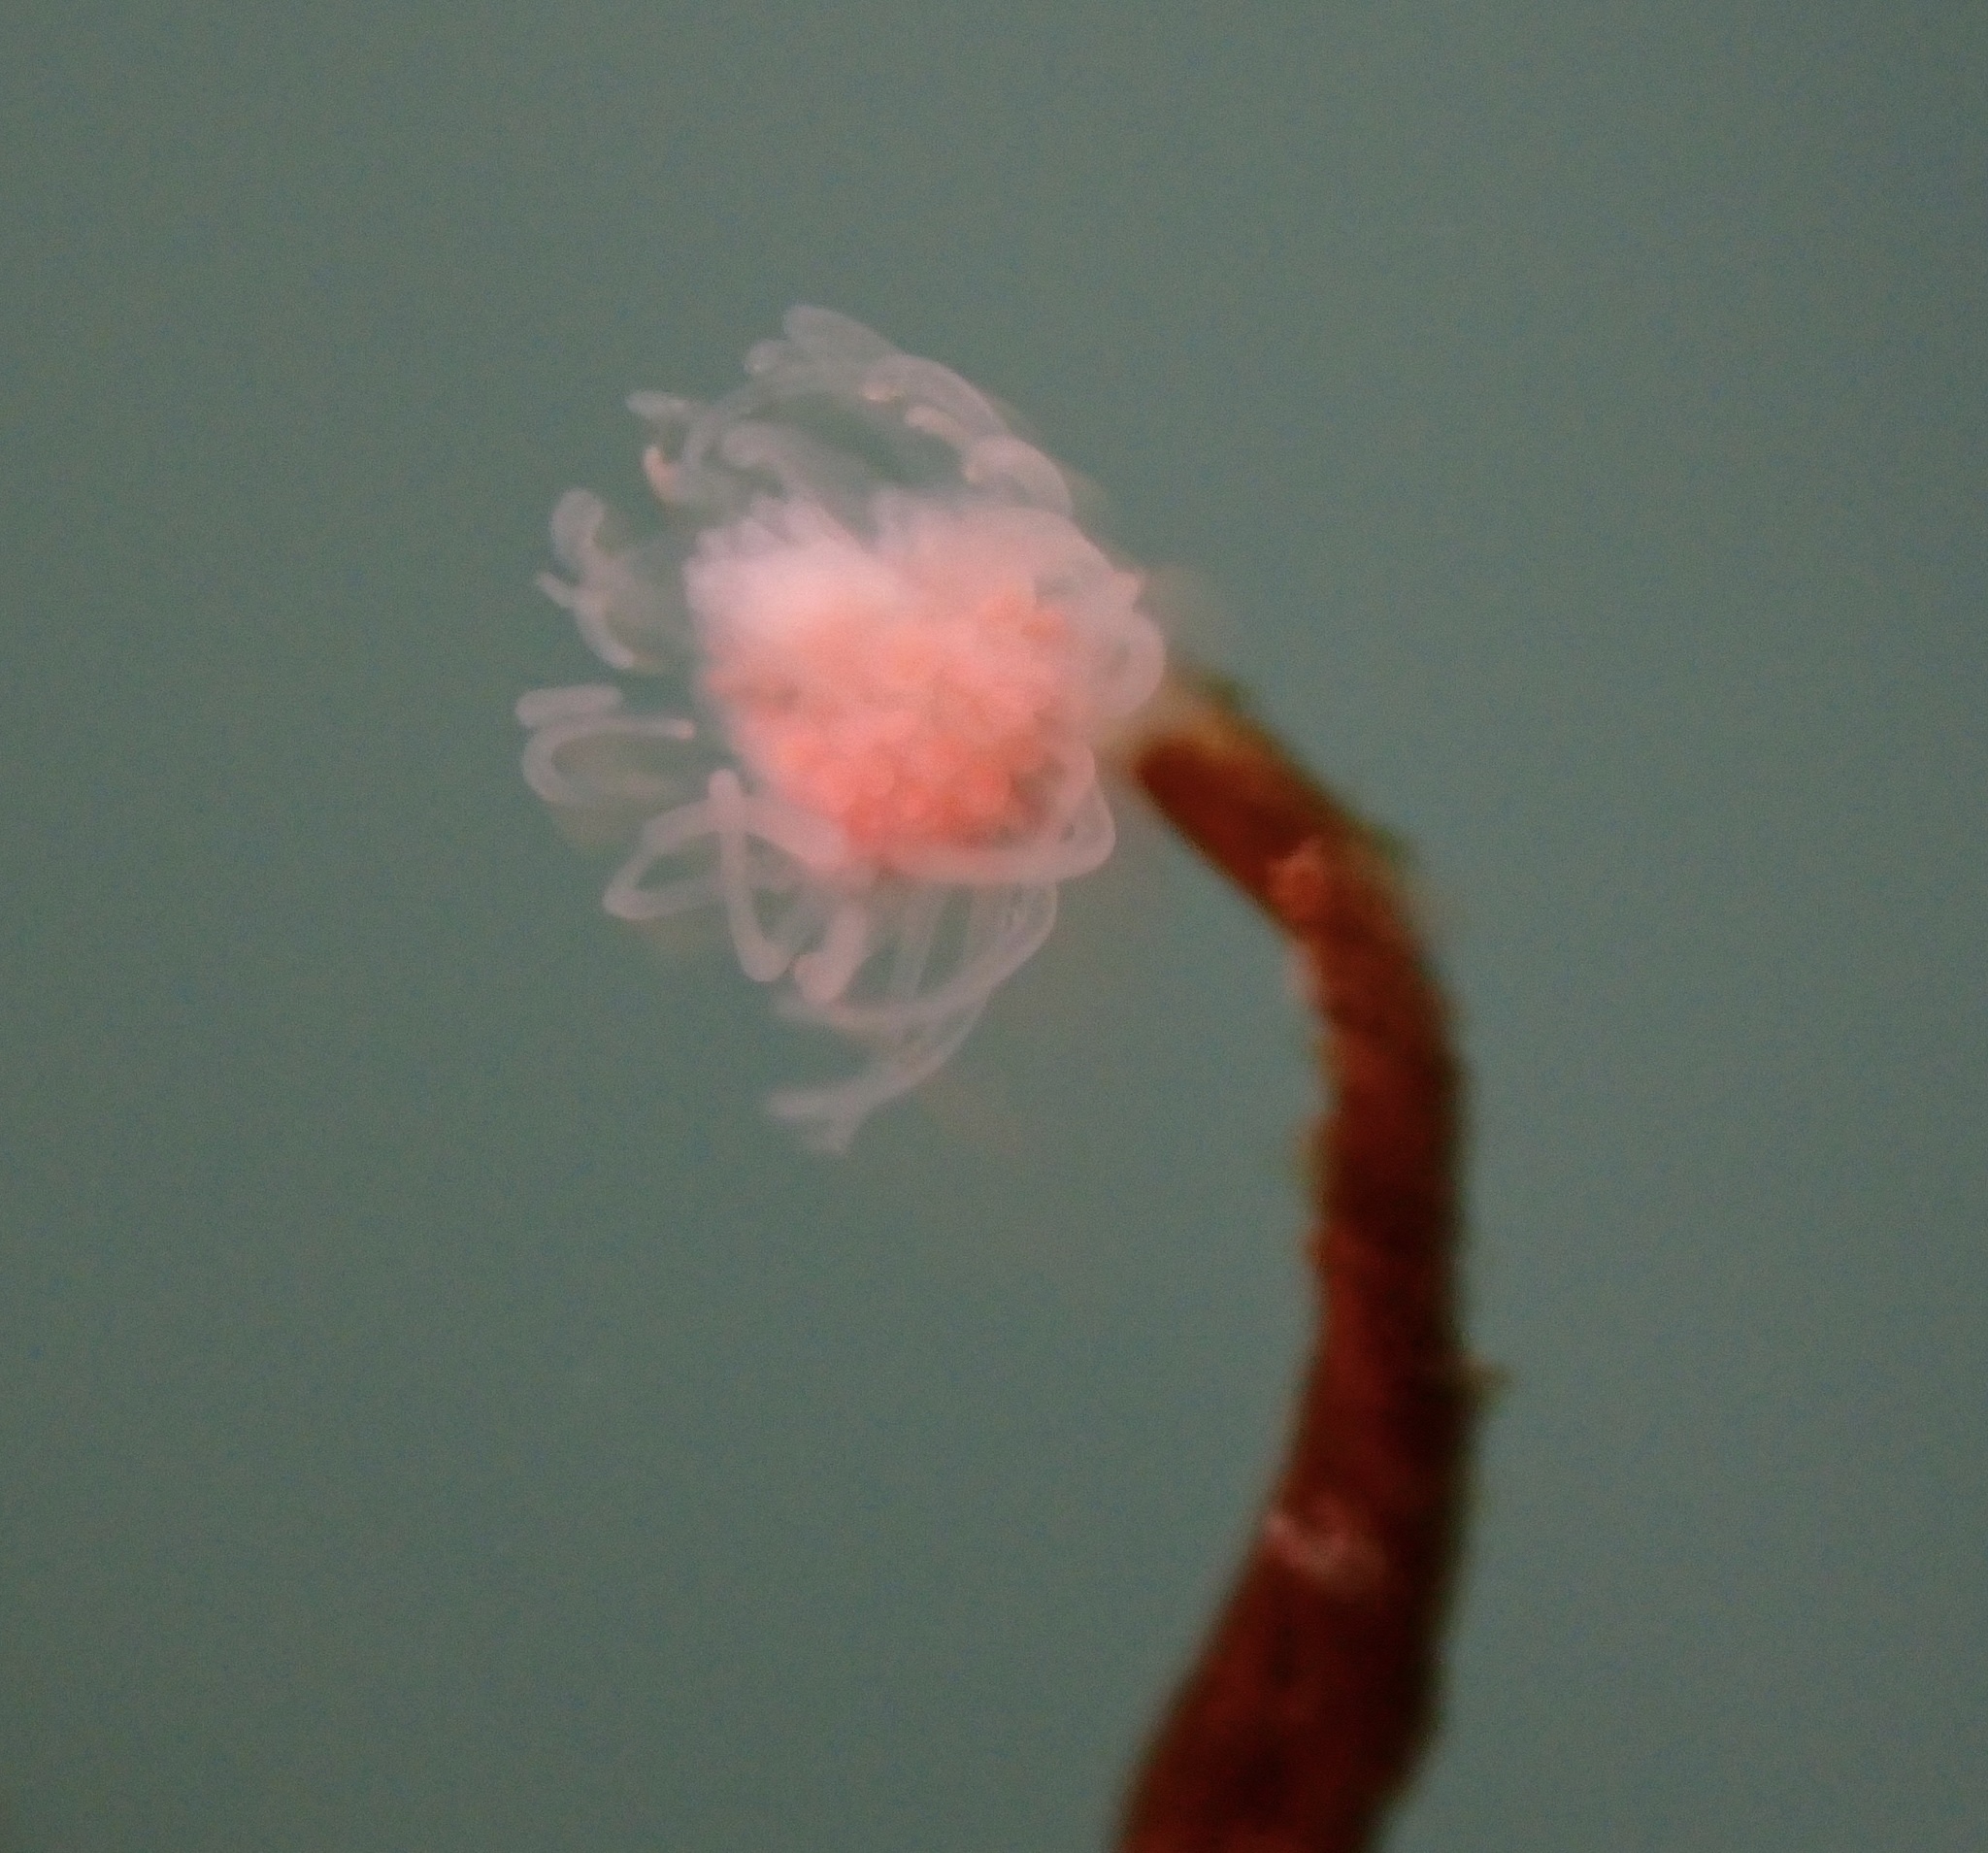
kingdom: Animalia
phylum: Cnidaria
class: Hydrozoa
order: Anthoathecata
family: Tubulariidae
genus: Ectopleura
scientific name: Ectopleura marina
